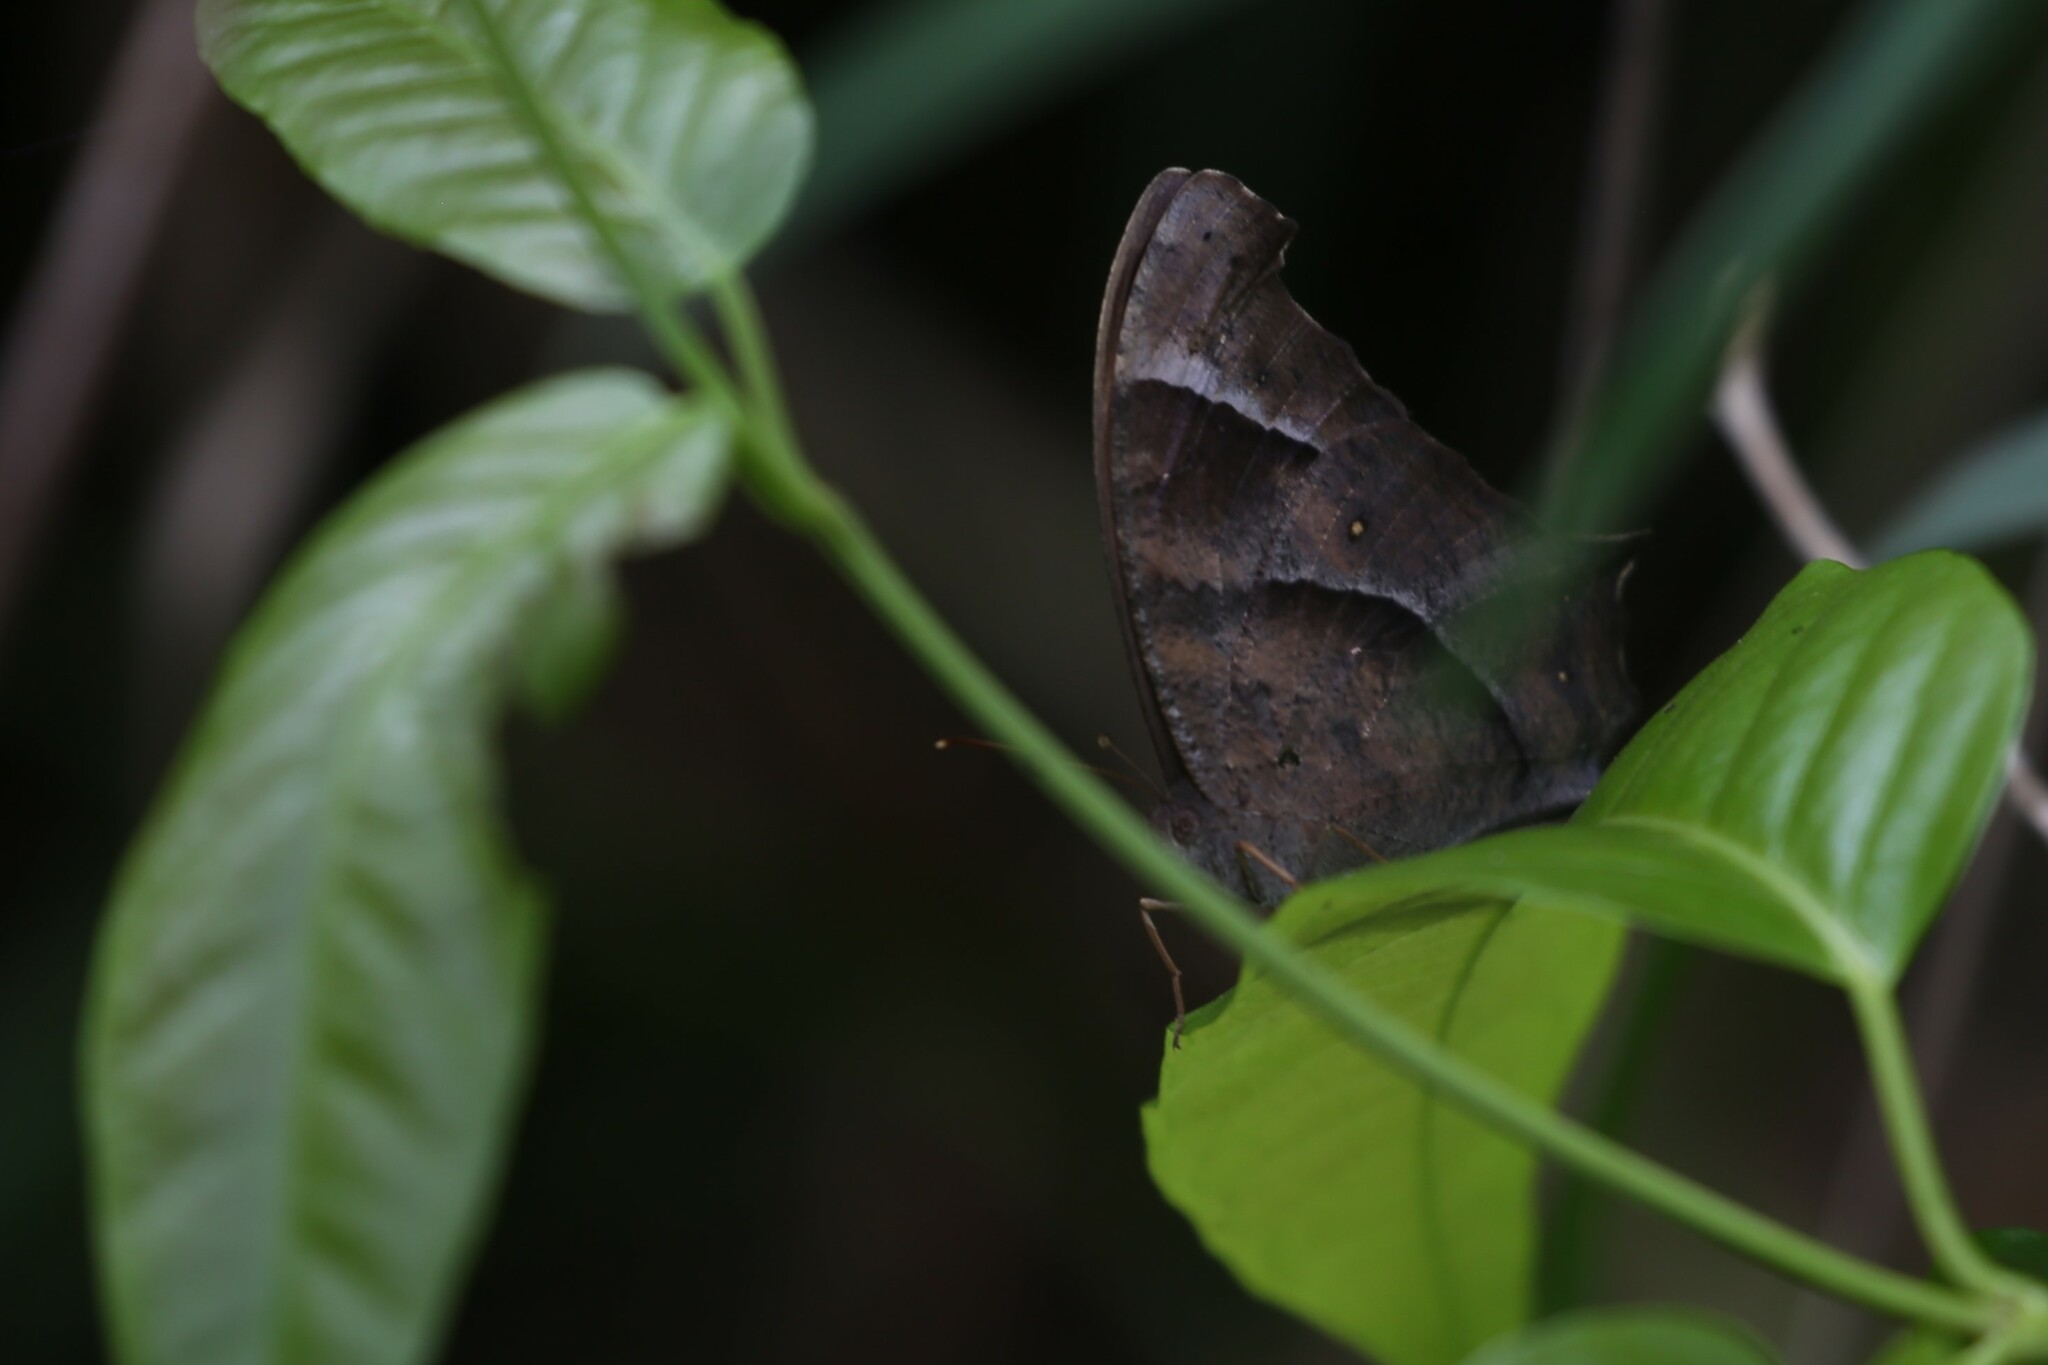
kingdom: Animalia
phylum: Arthropoda
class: Insecta
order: Lepidoptera
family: Nymphalidae
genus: Melanitis
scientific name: Melanitis leda
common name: Twilight brown
